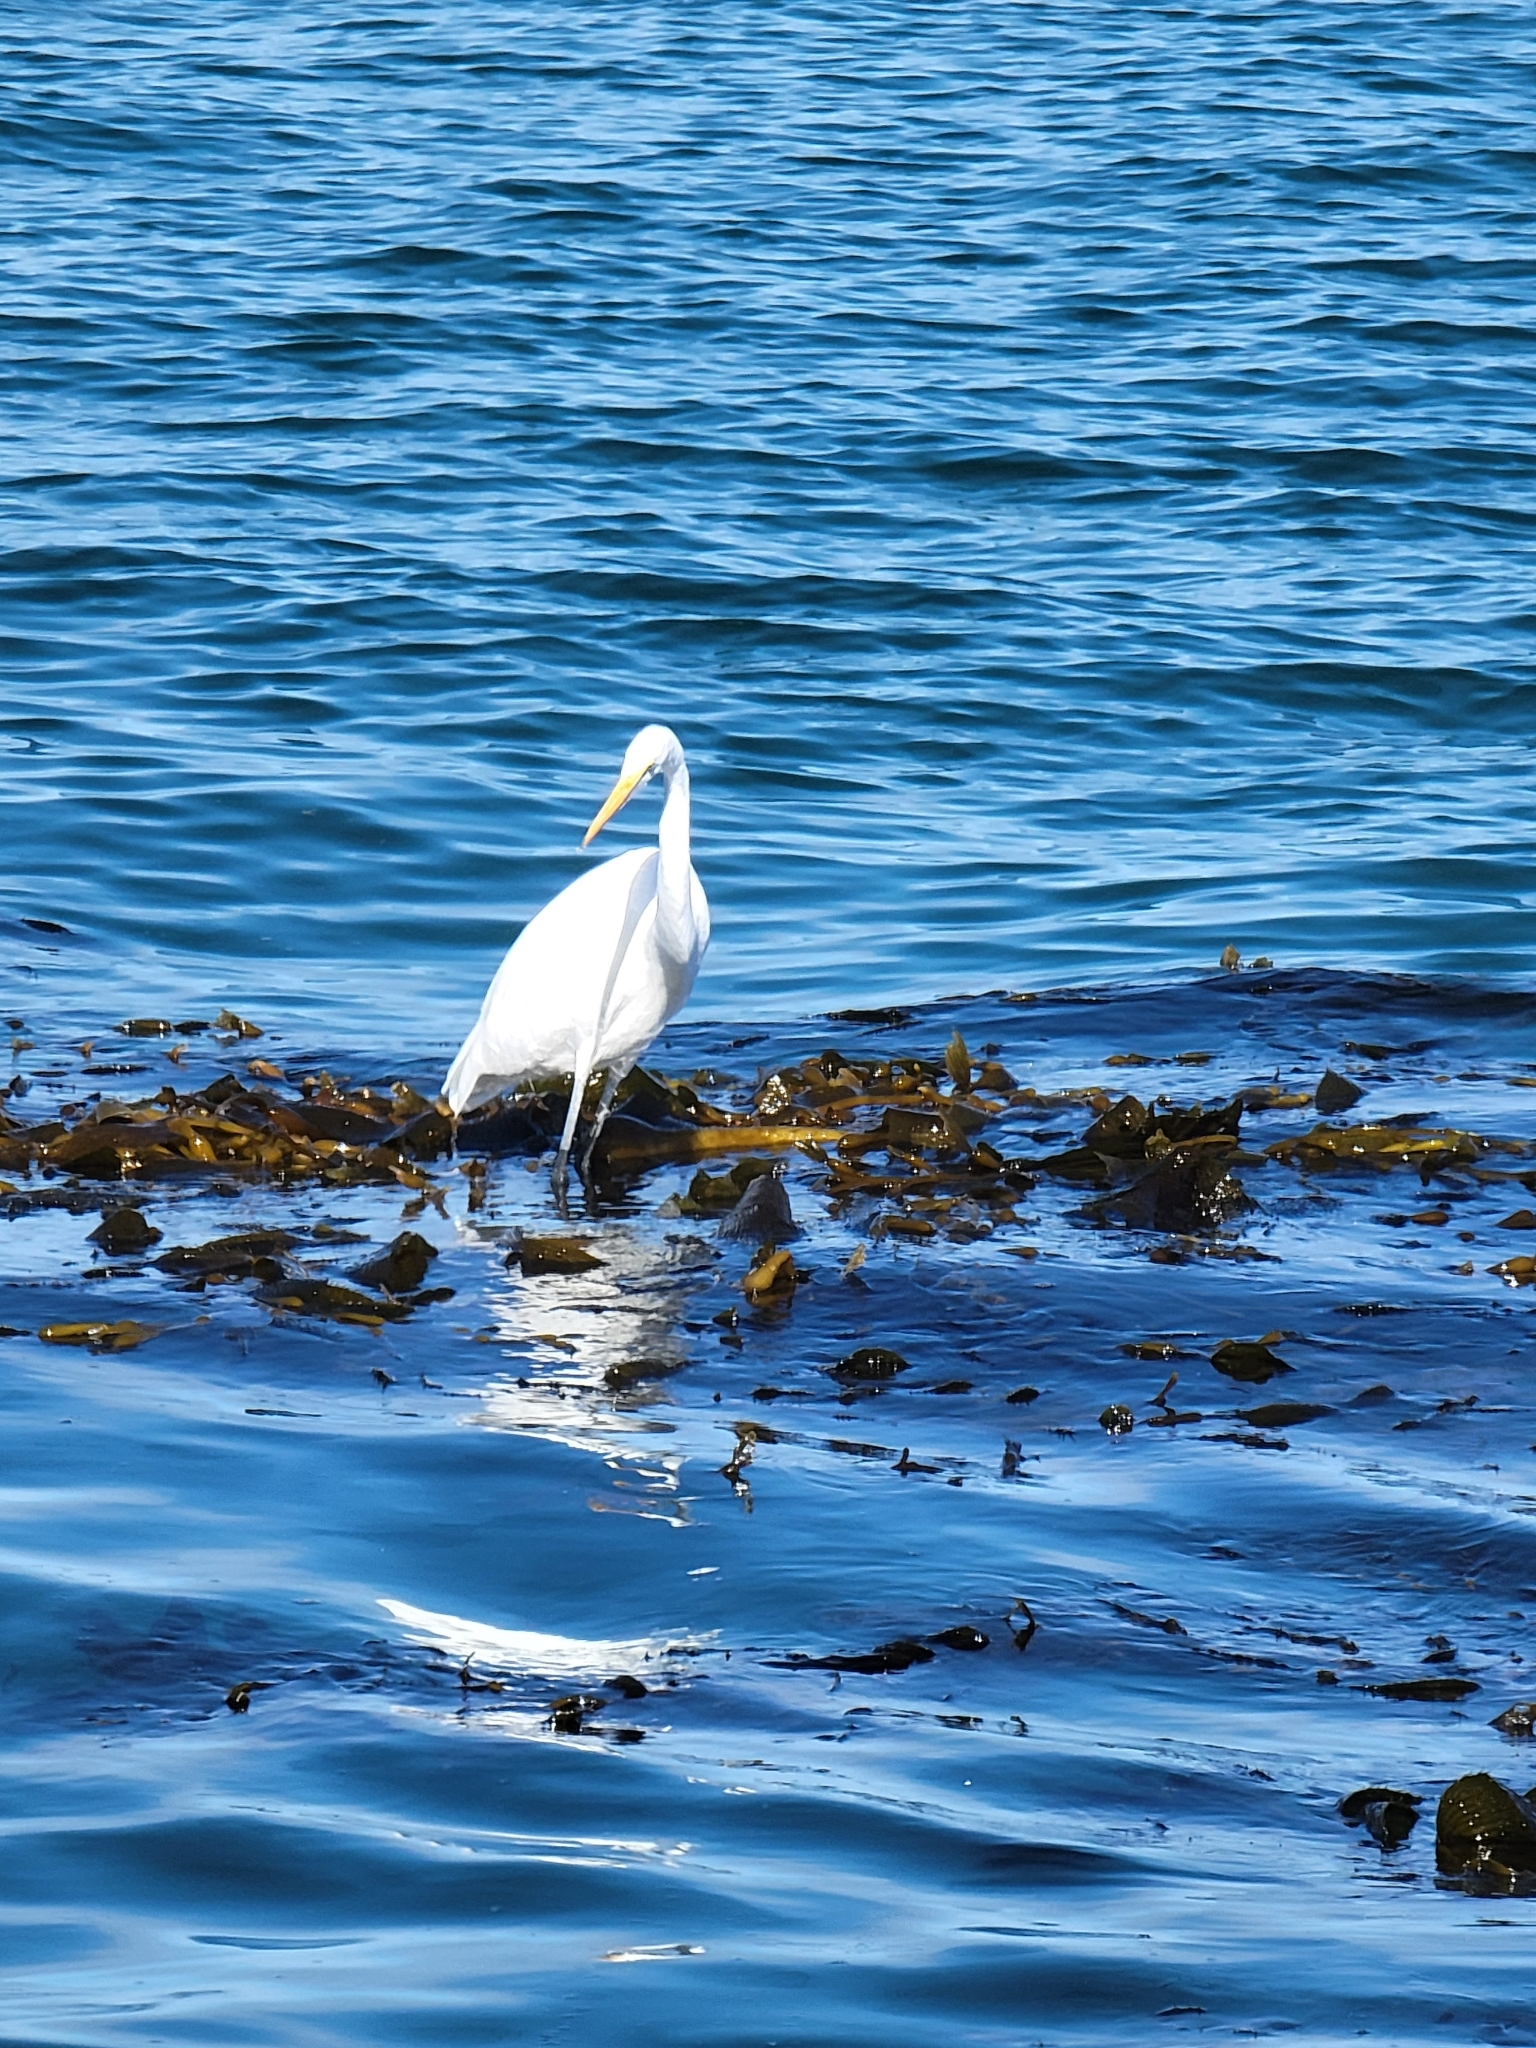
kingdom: Animalia
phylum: Chordata
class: Aves
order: Pelecaniformes
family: Ardeidae
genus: Ardea
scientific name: Ardea alba
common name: Great egret
